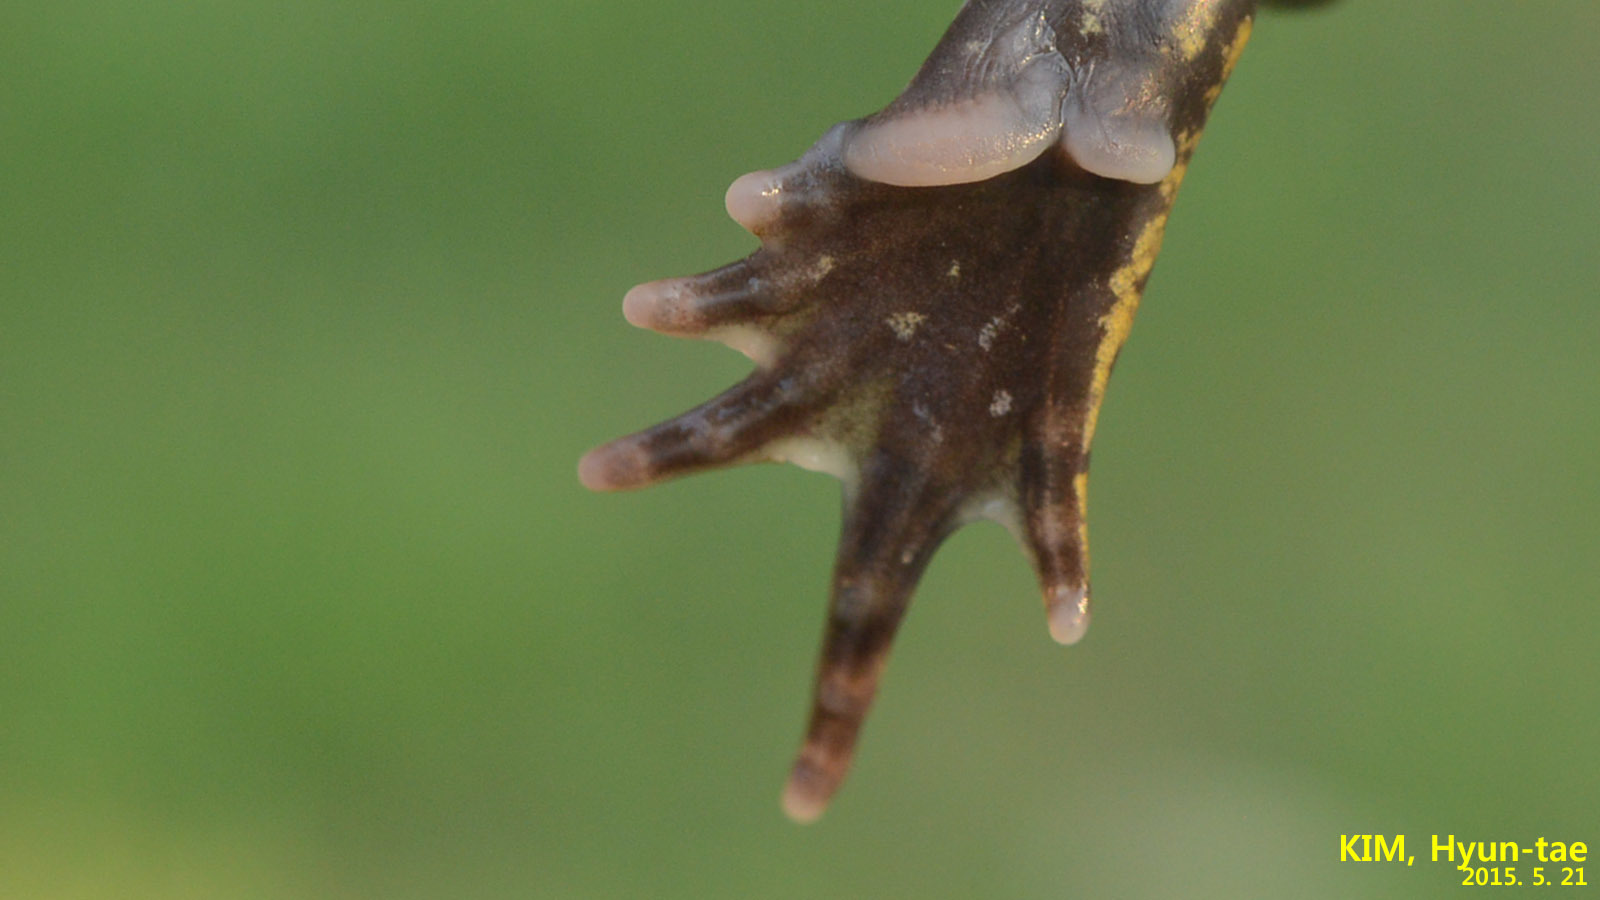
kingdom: Animalia
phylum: Chordata
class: Amphibia
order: Anura
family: Microhylidae
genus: Kaloula
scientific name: Kaloula borealis
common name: Boreal digging frog
